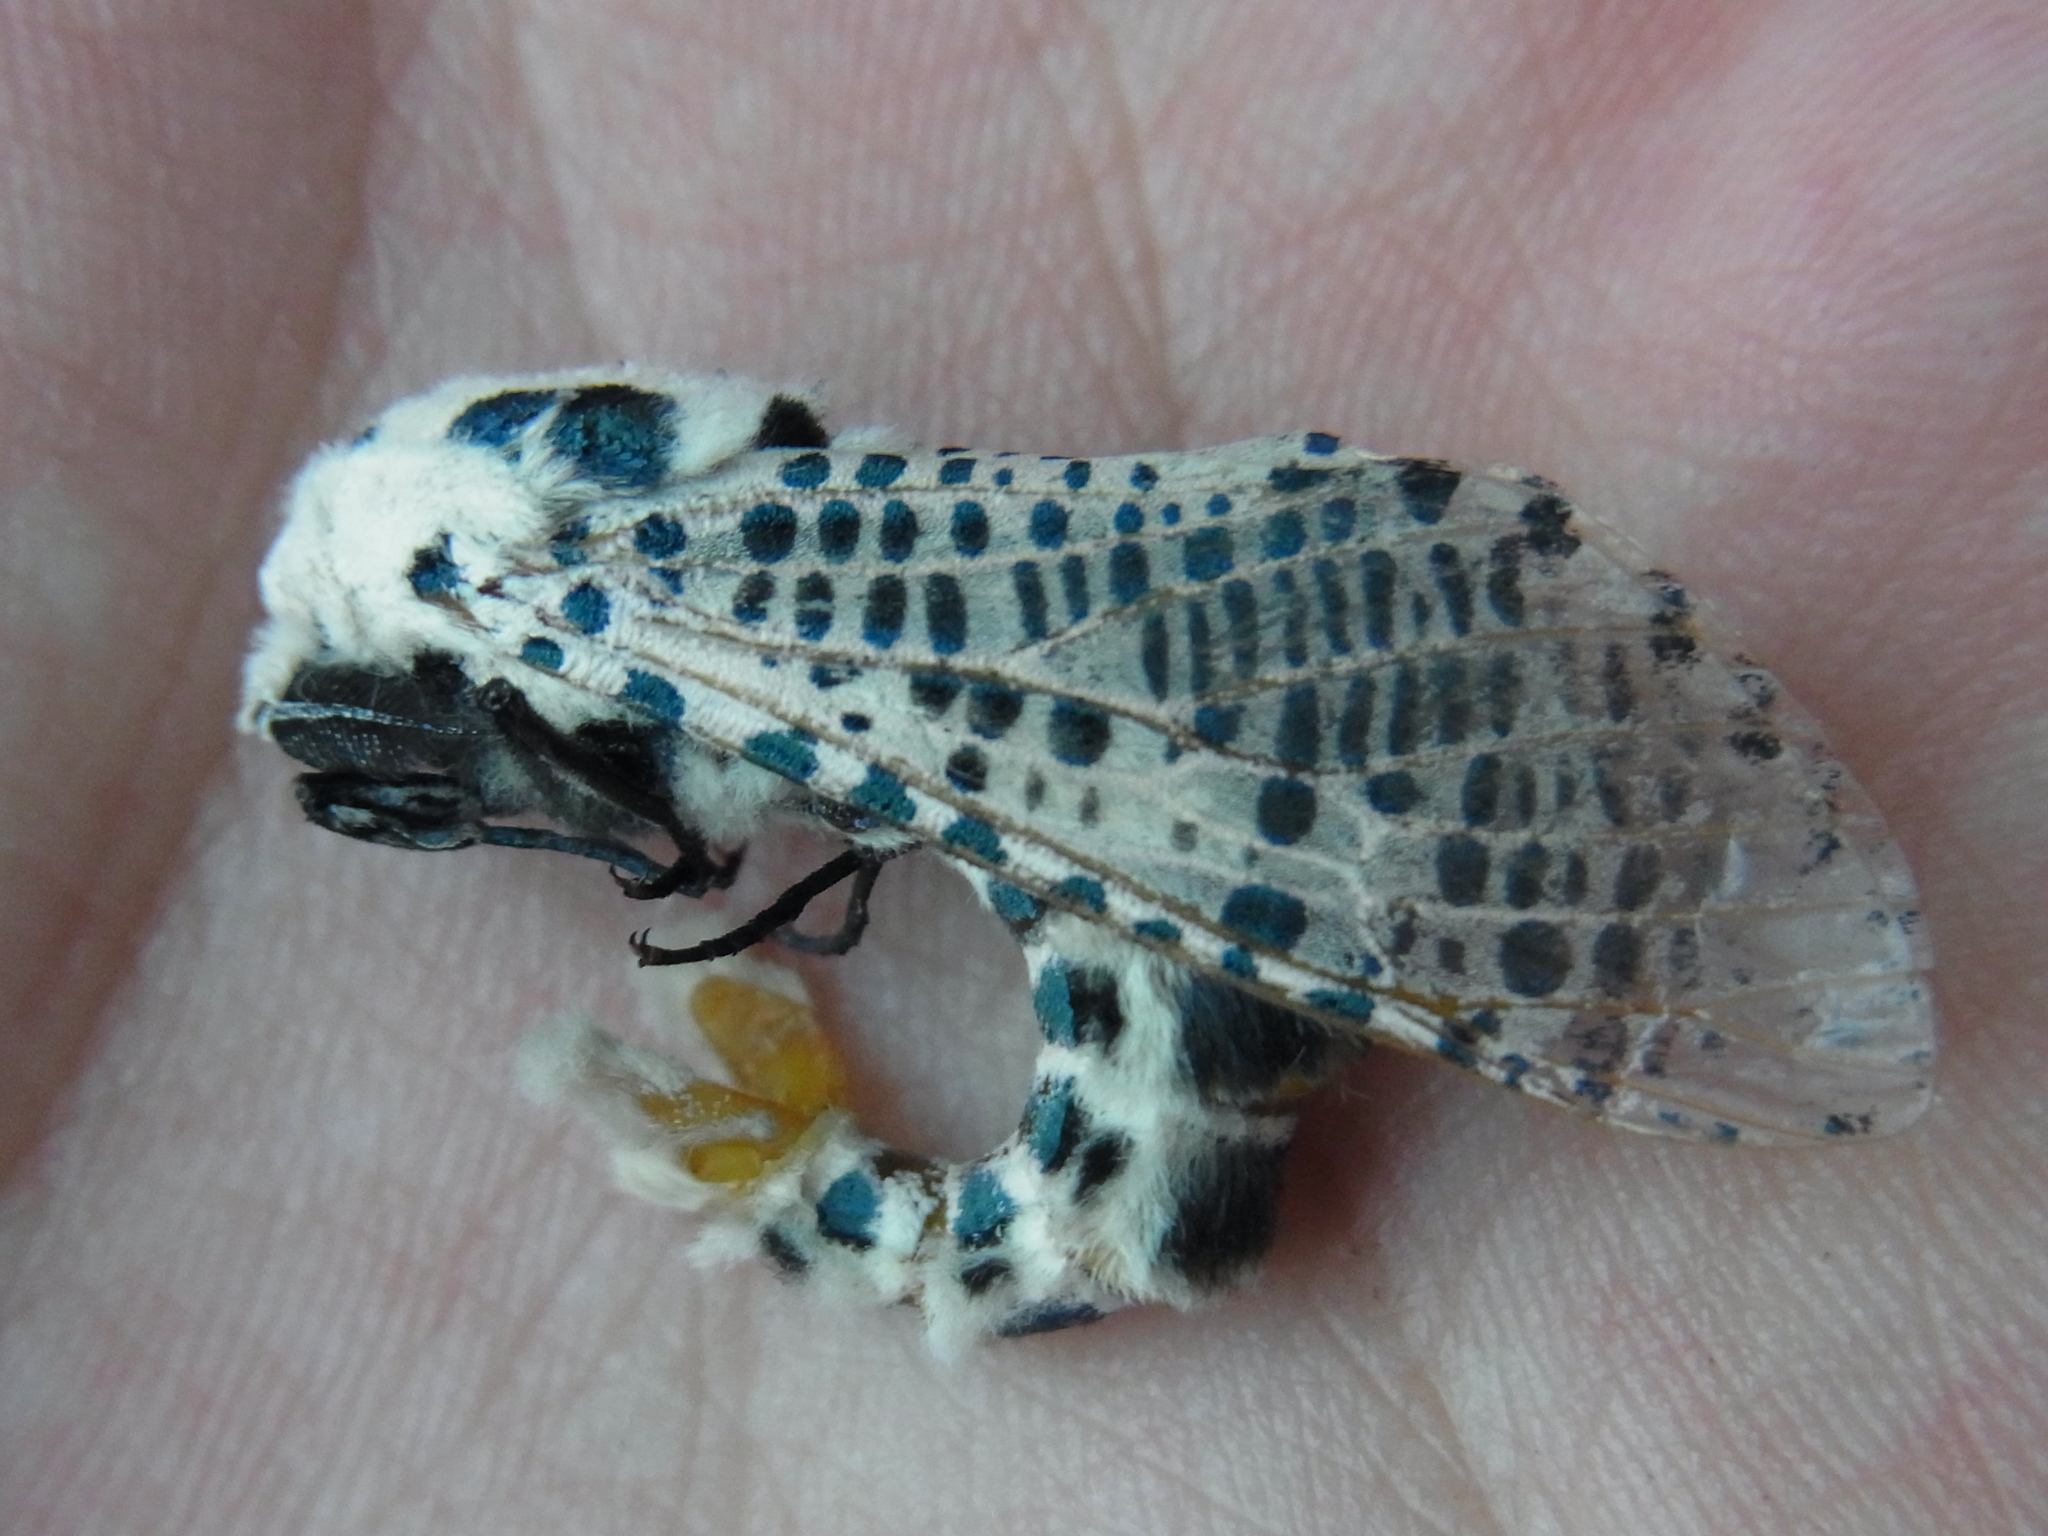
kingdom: Animalia
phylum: Arthropoda
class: Insecta
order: Lepidoptera
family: Cossidae
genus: Zeuzera
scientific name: Zeuzera multistrigata
